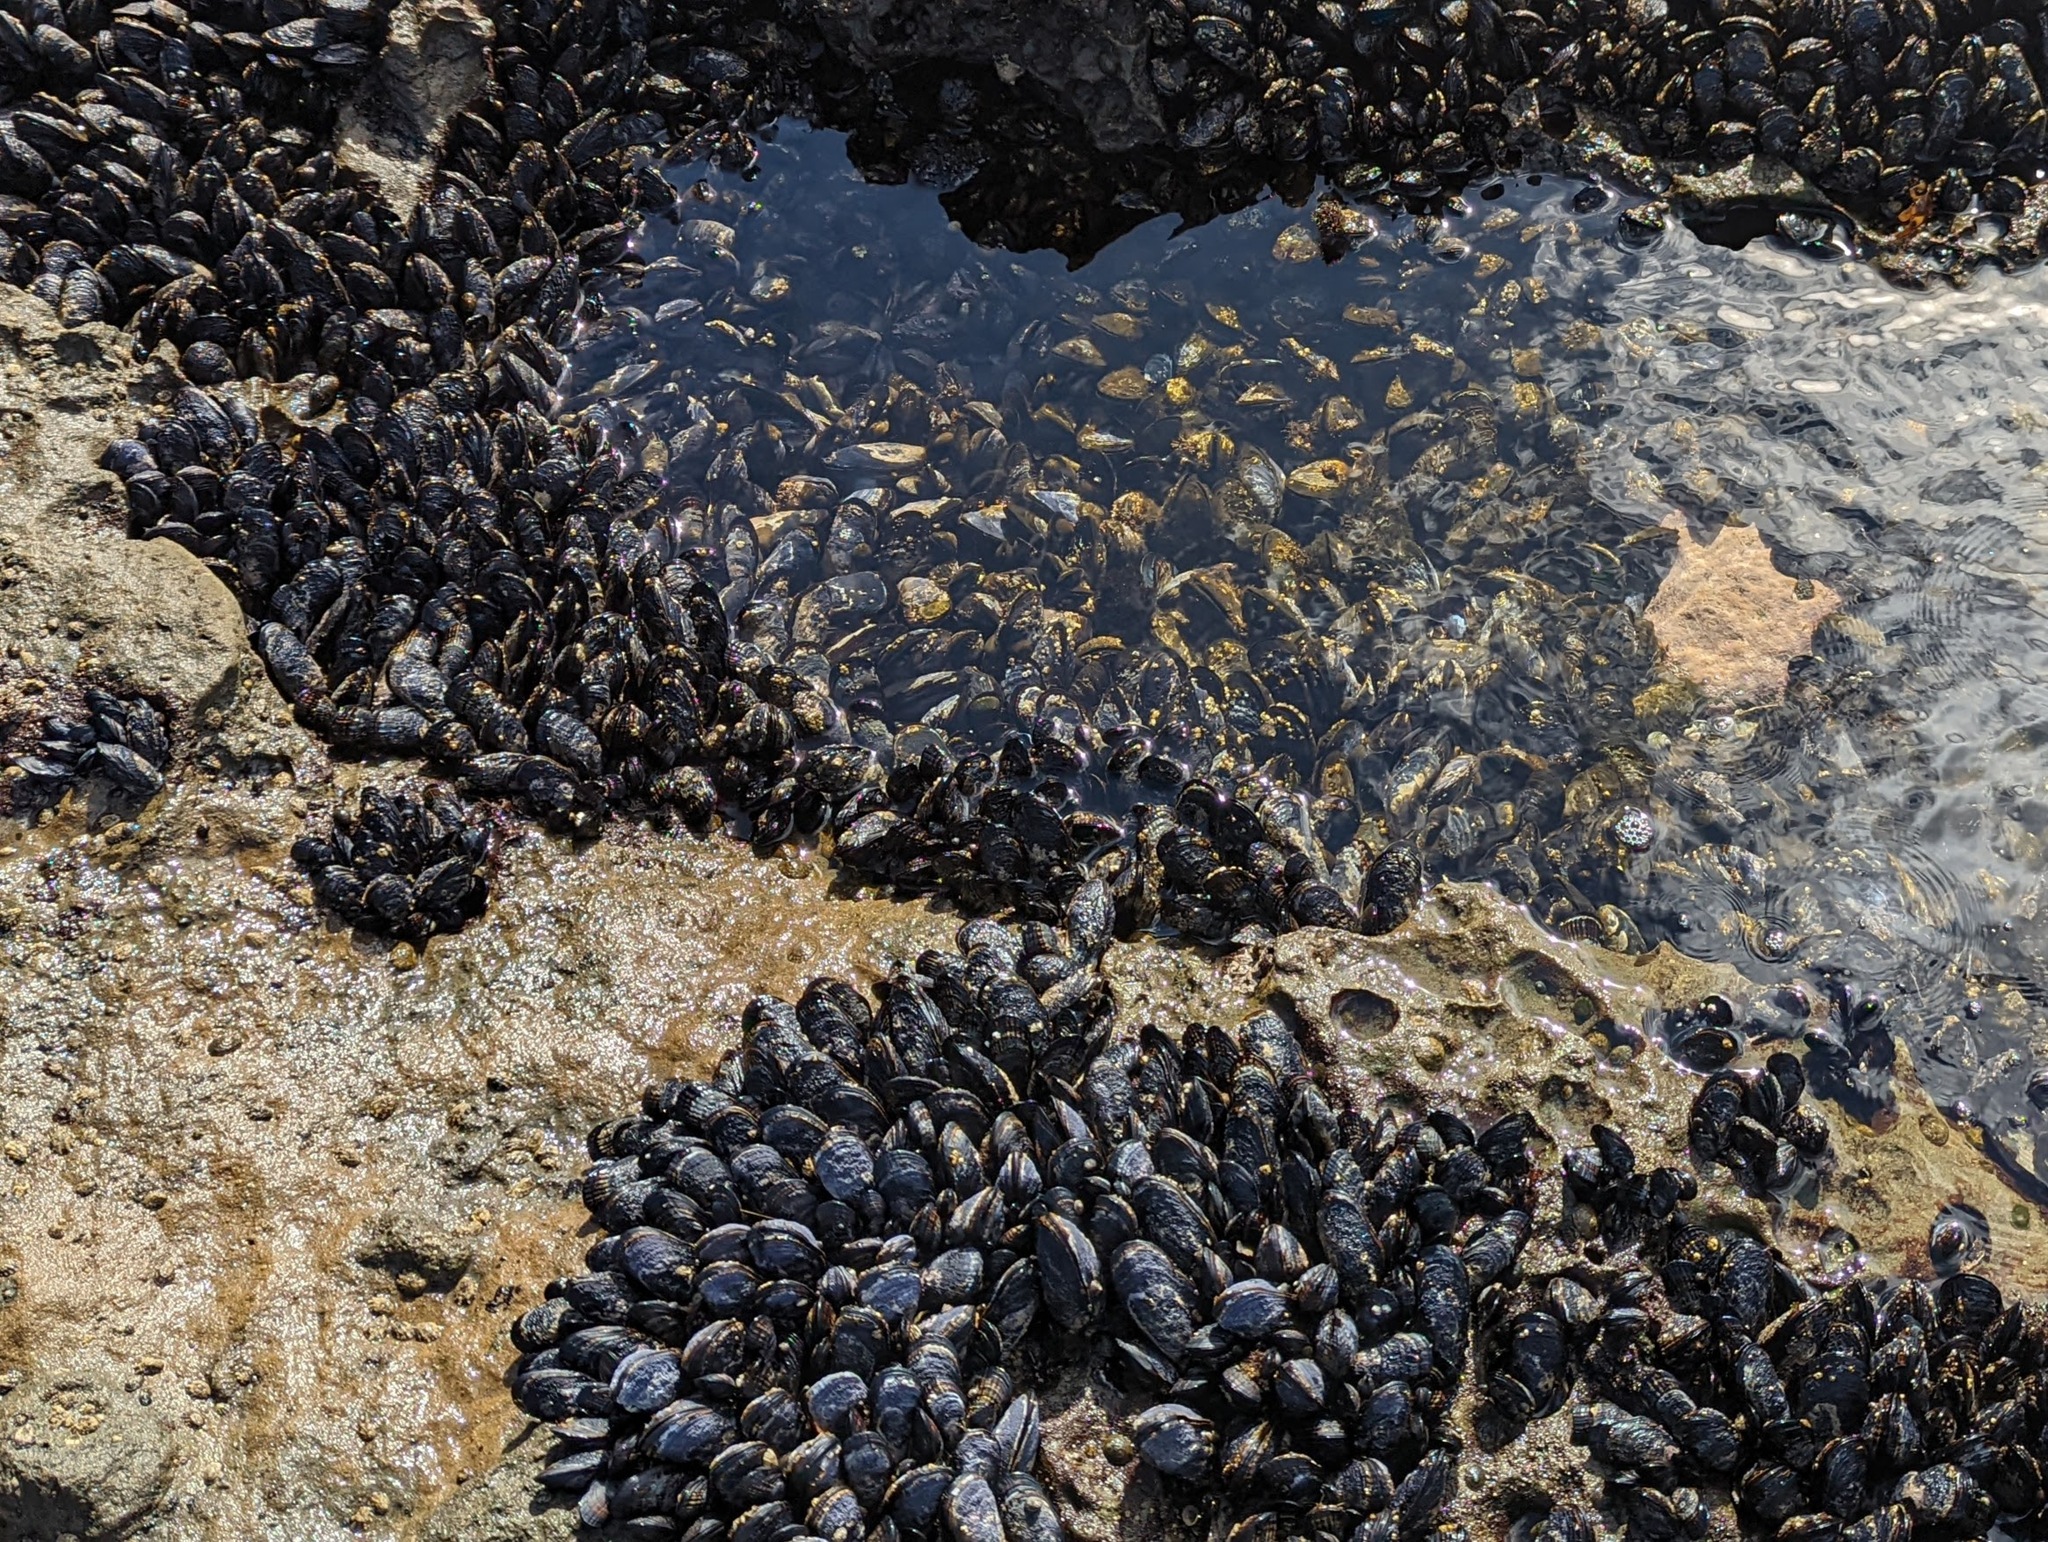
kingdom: Animalia
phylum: Mollusca
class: Bivalvia
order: Mytilida
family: Mytilidae
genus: Mytilus
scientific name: Mytilus californianus
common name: California mussel
